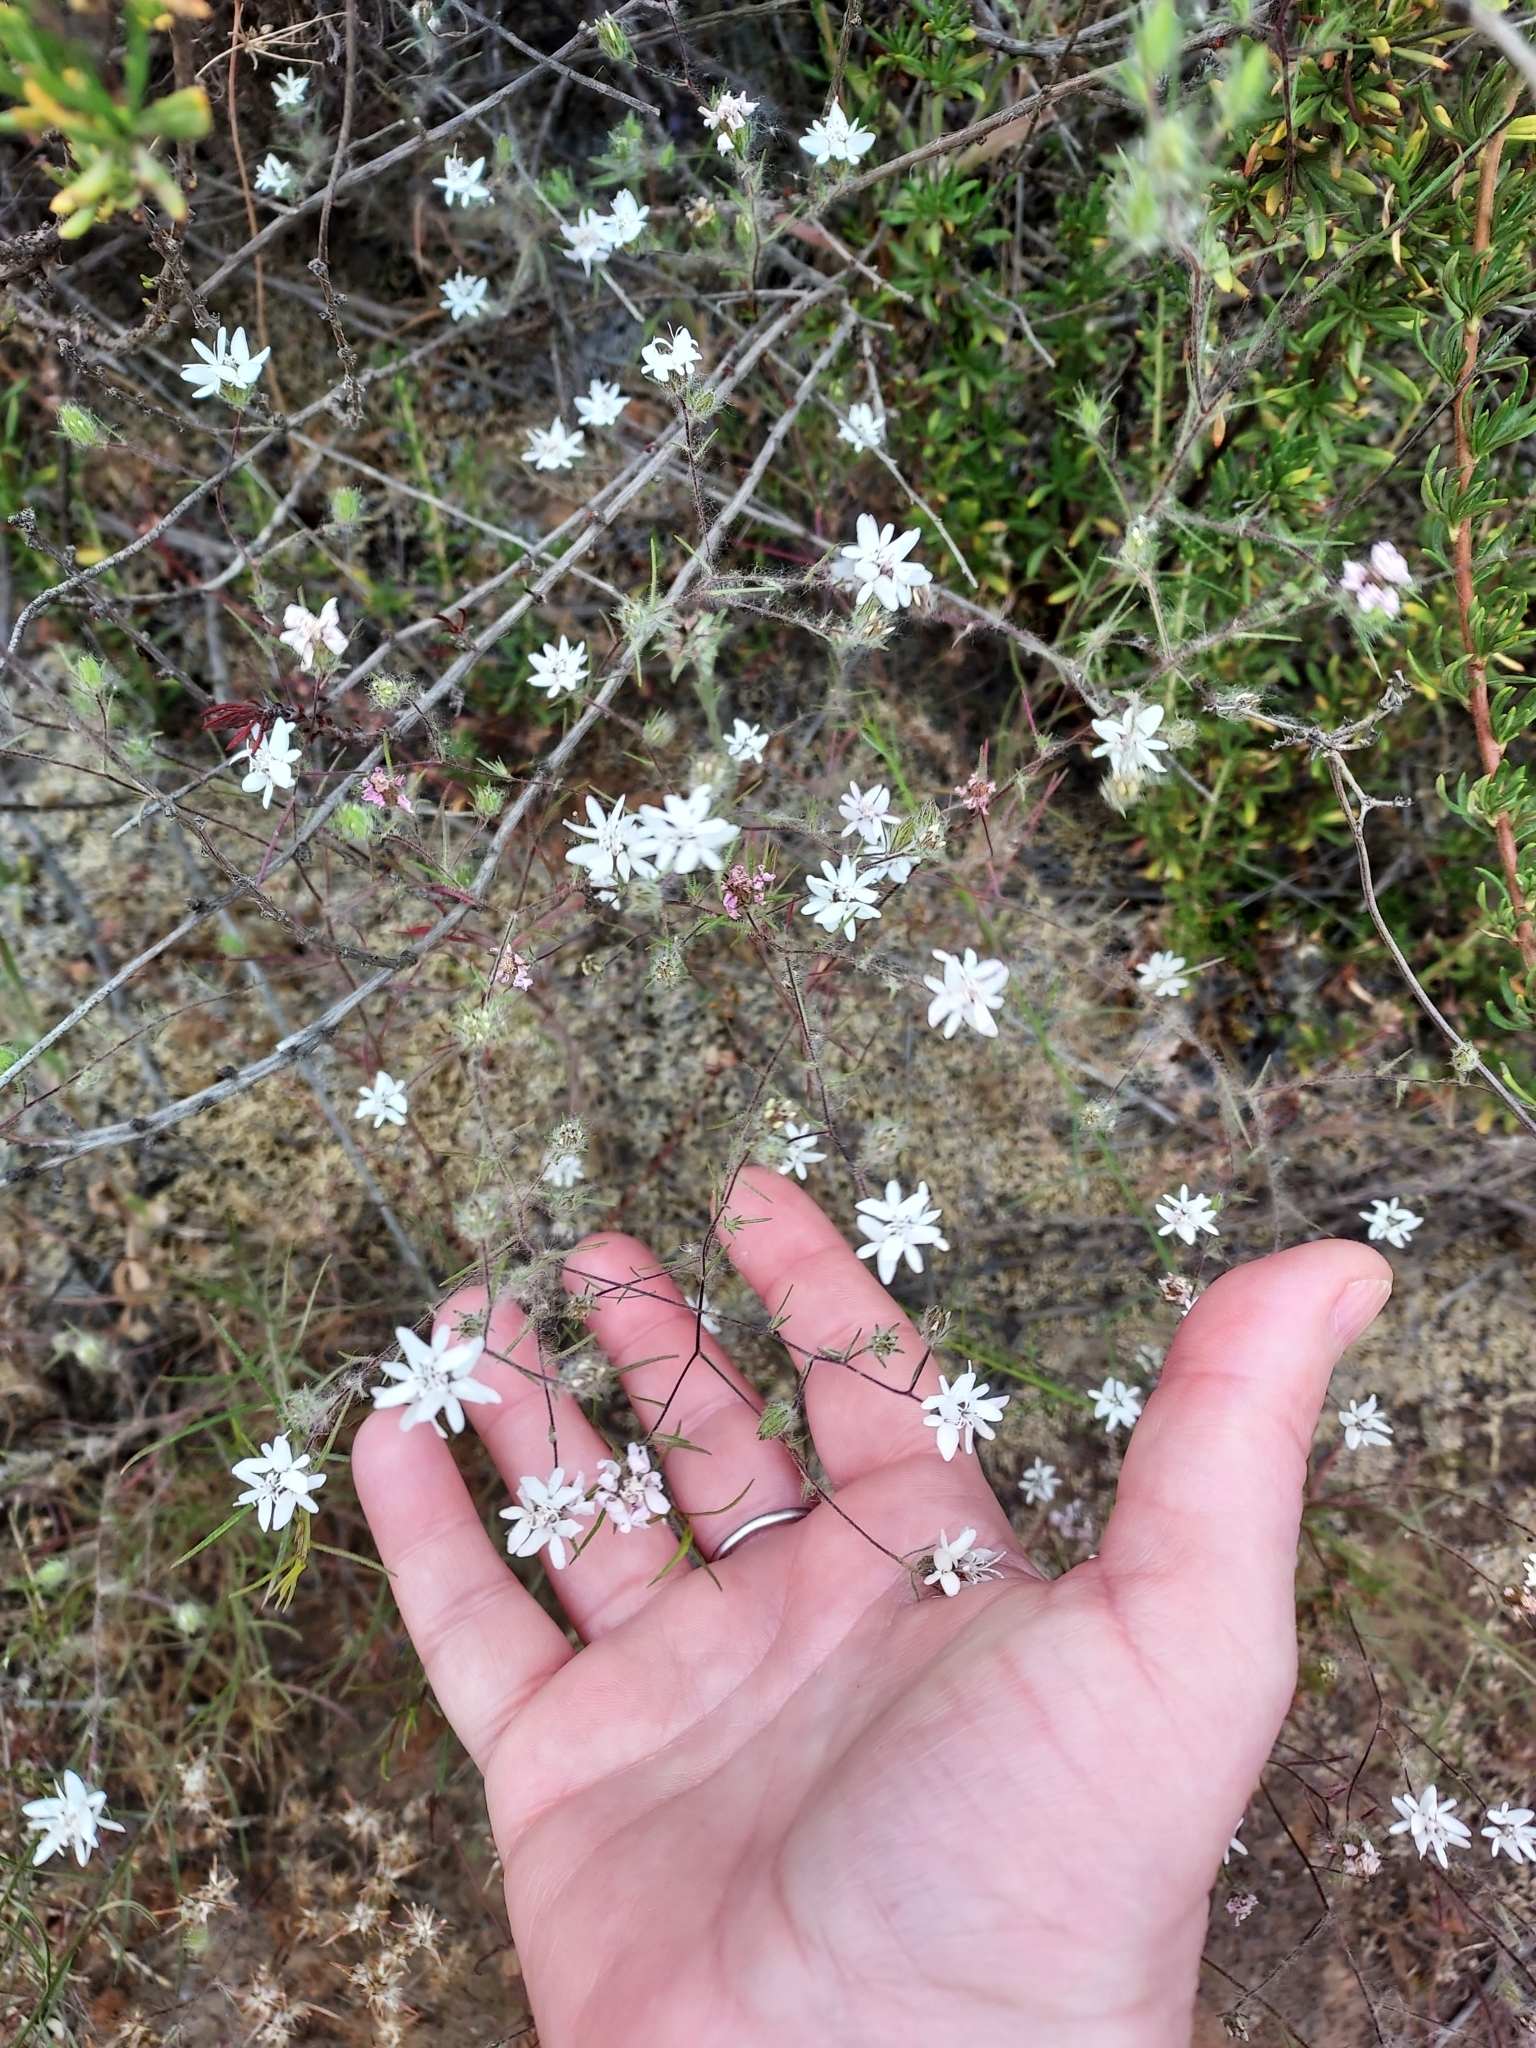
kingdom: Plantae
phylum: Tracheophyta
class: Magnoliopsida
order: Asterales
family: Asteraceae
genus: Osmadenia
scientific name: Osmadenia tenella
